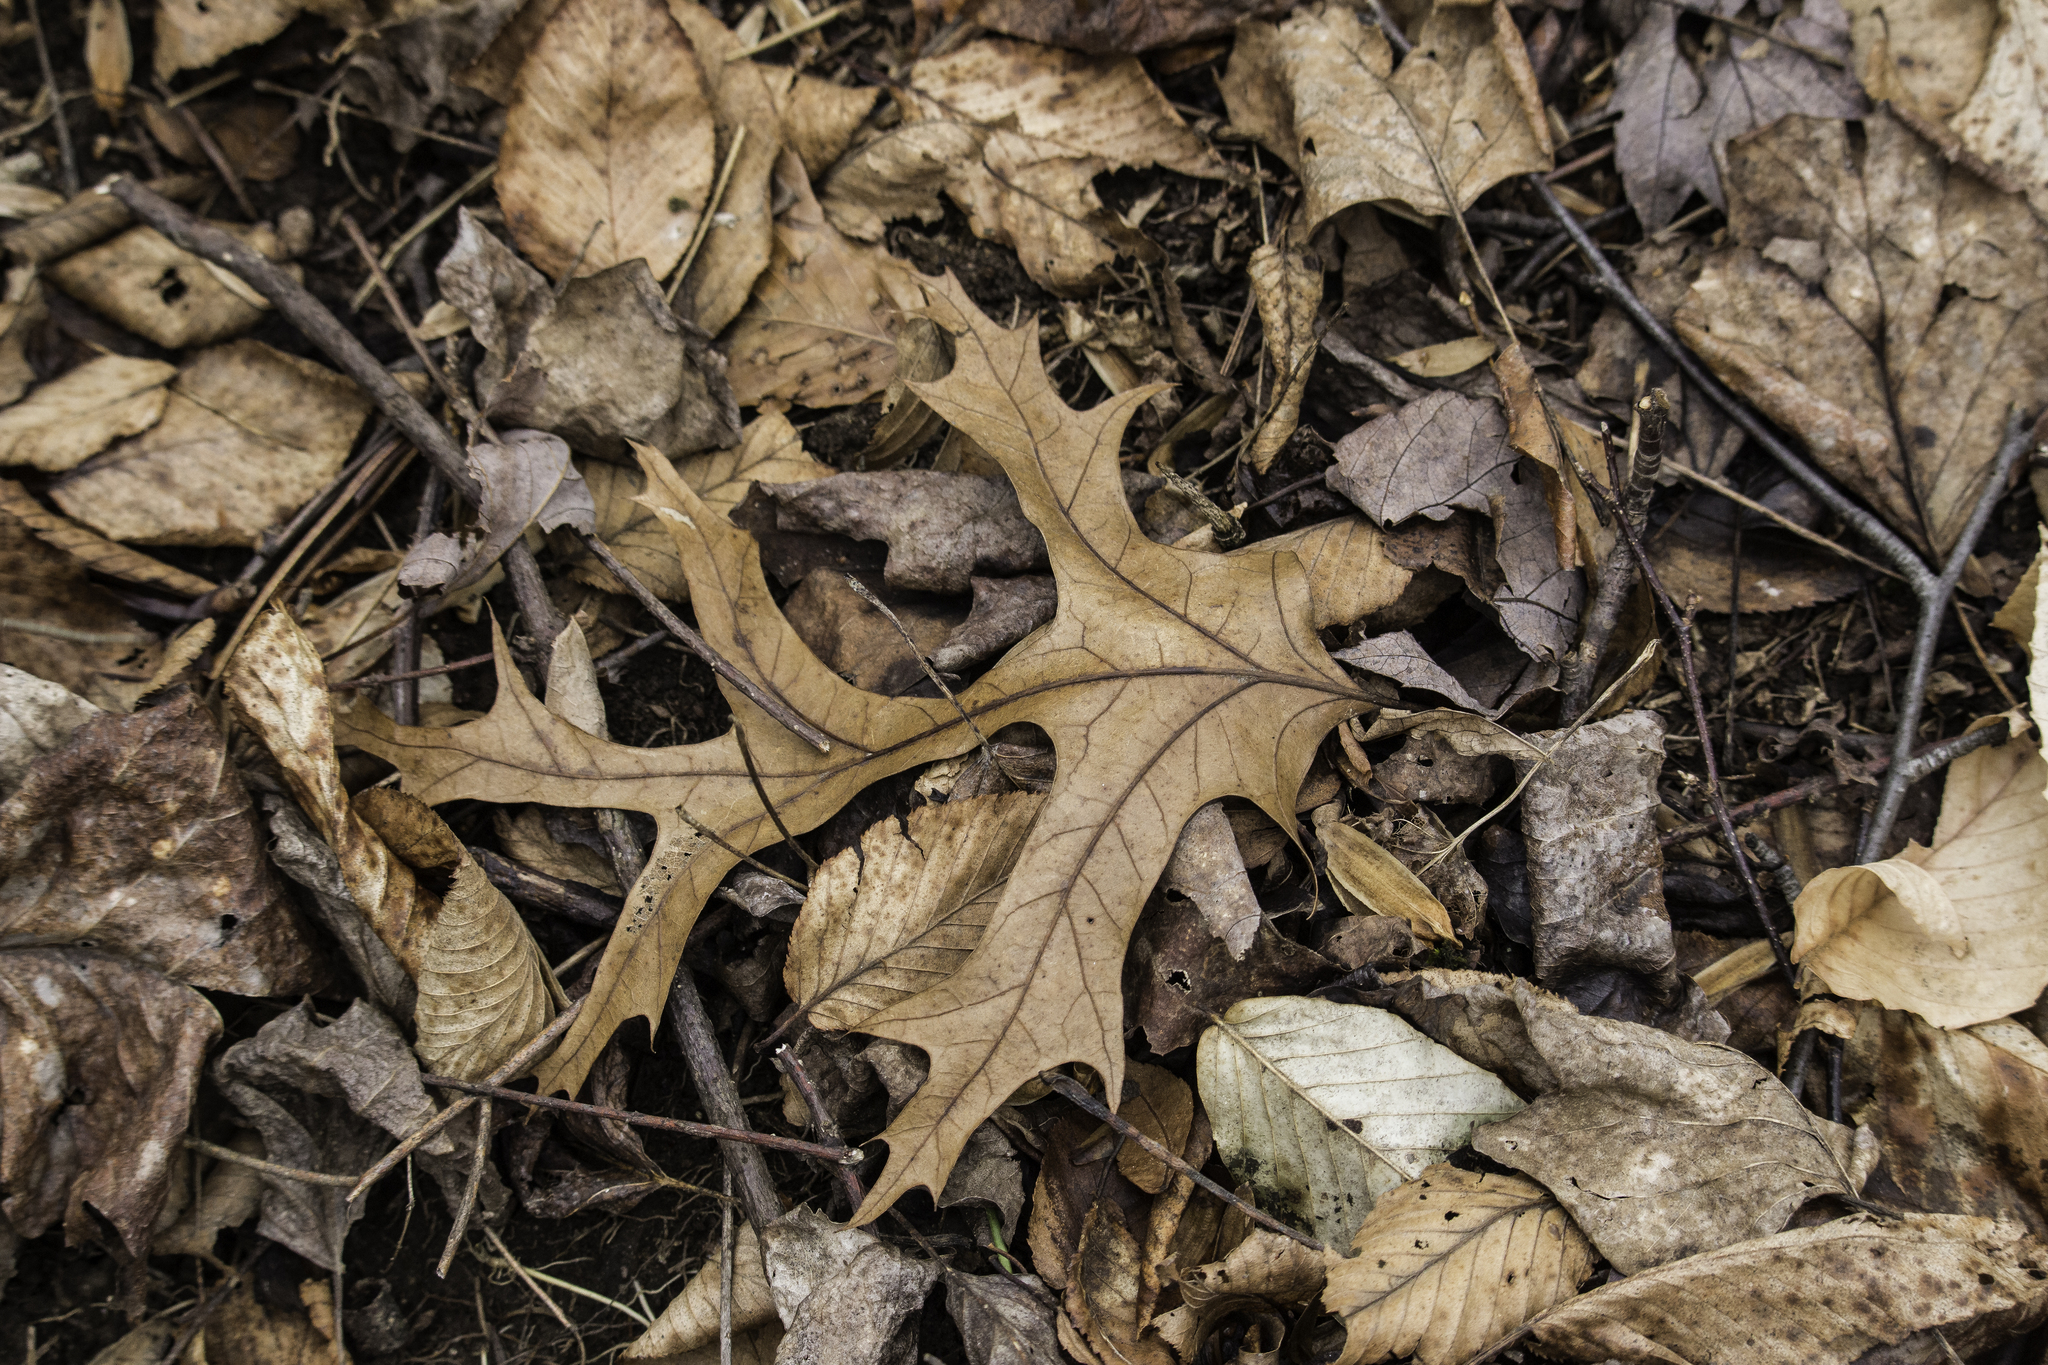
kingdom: Plantae
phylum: Tracheophyta
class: Magnoliopsida
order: Fagales
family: Fagaceae
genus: Quercus
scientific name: Quercus coccinea
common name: Scarlet oak
